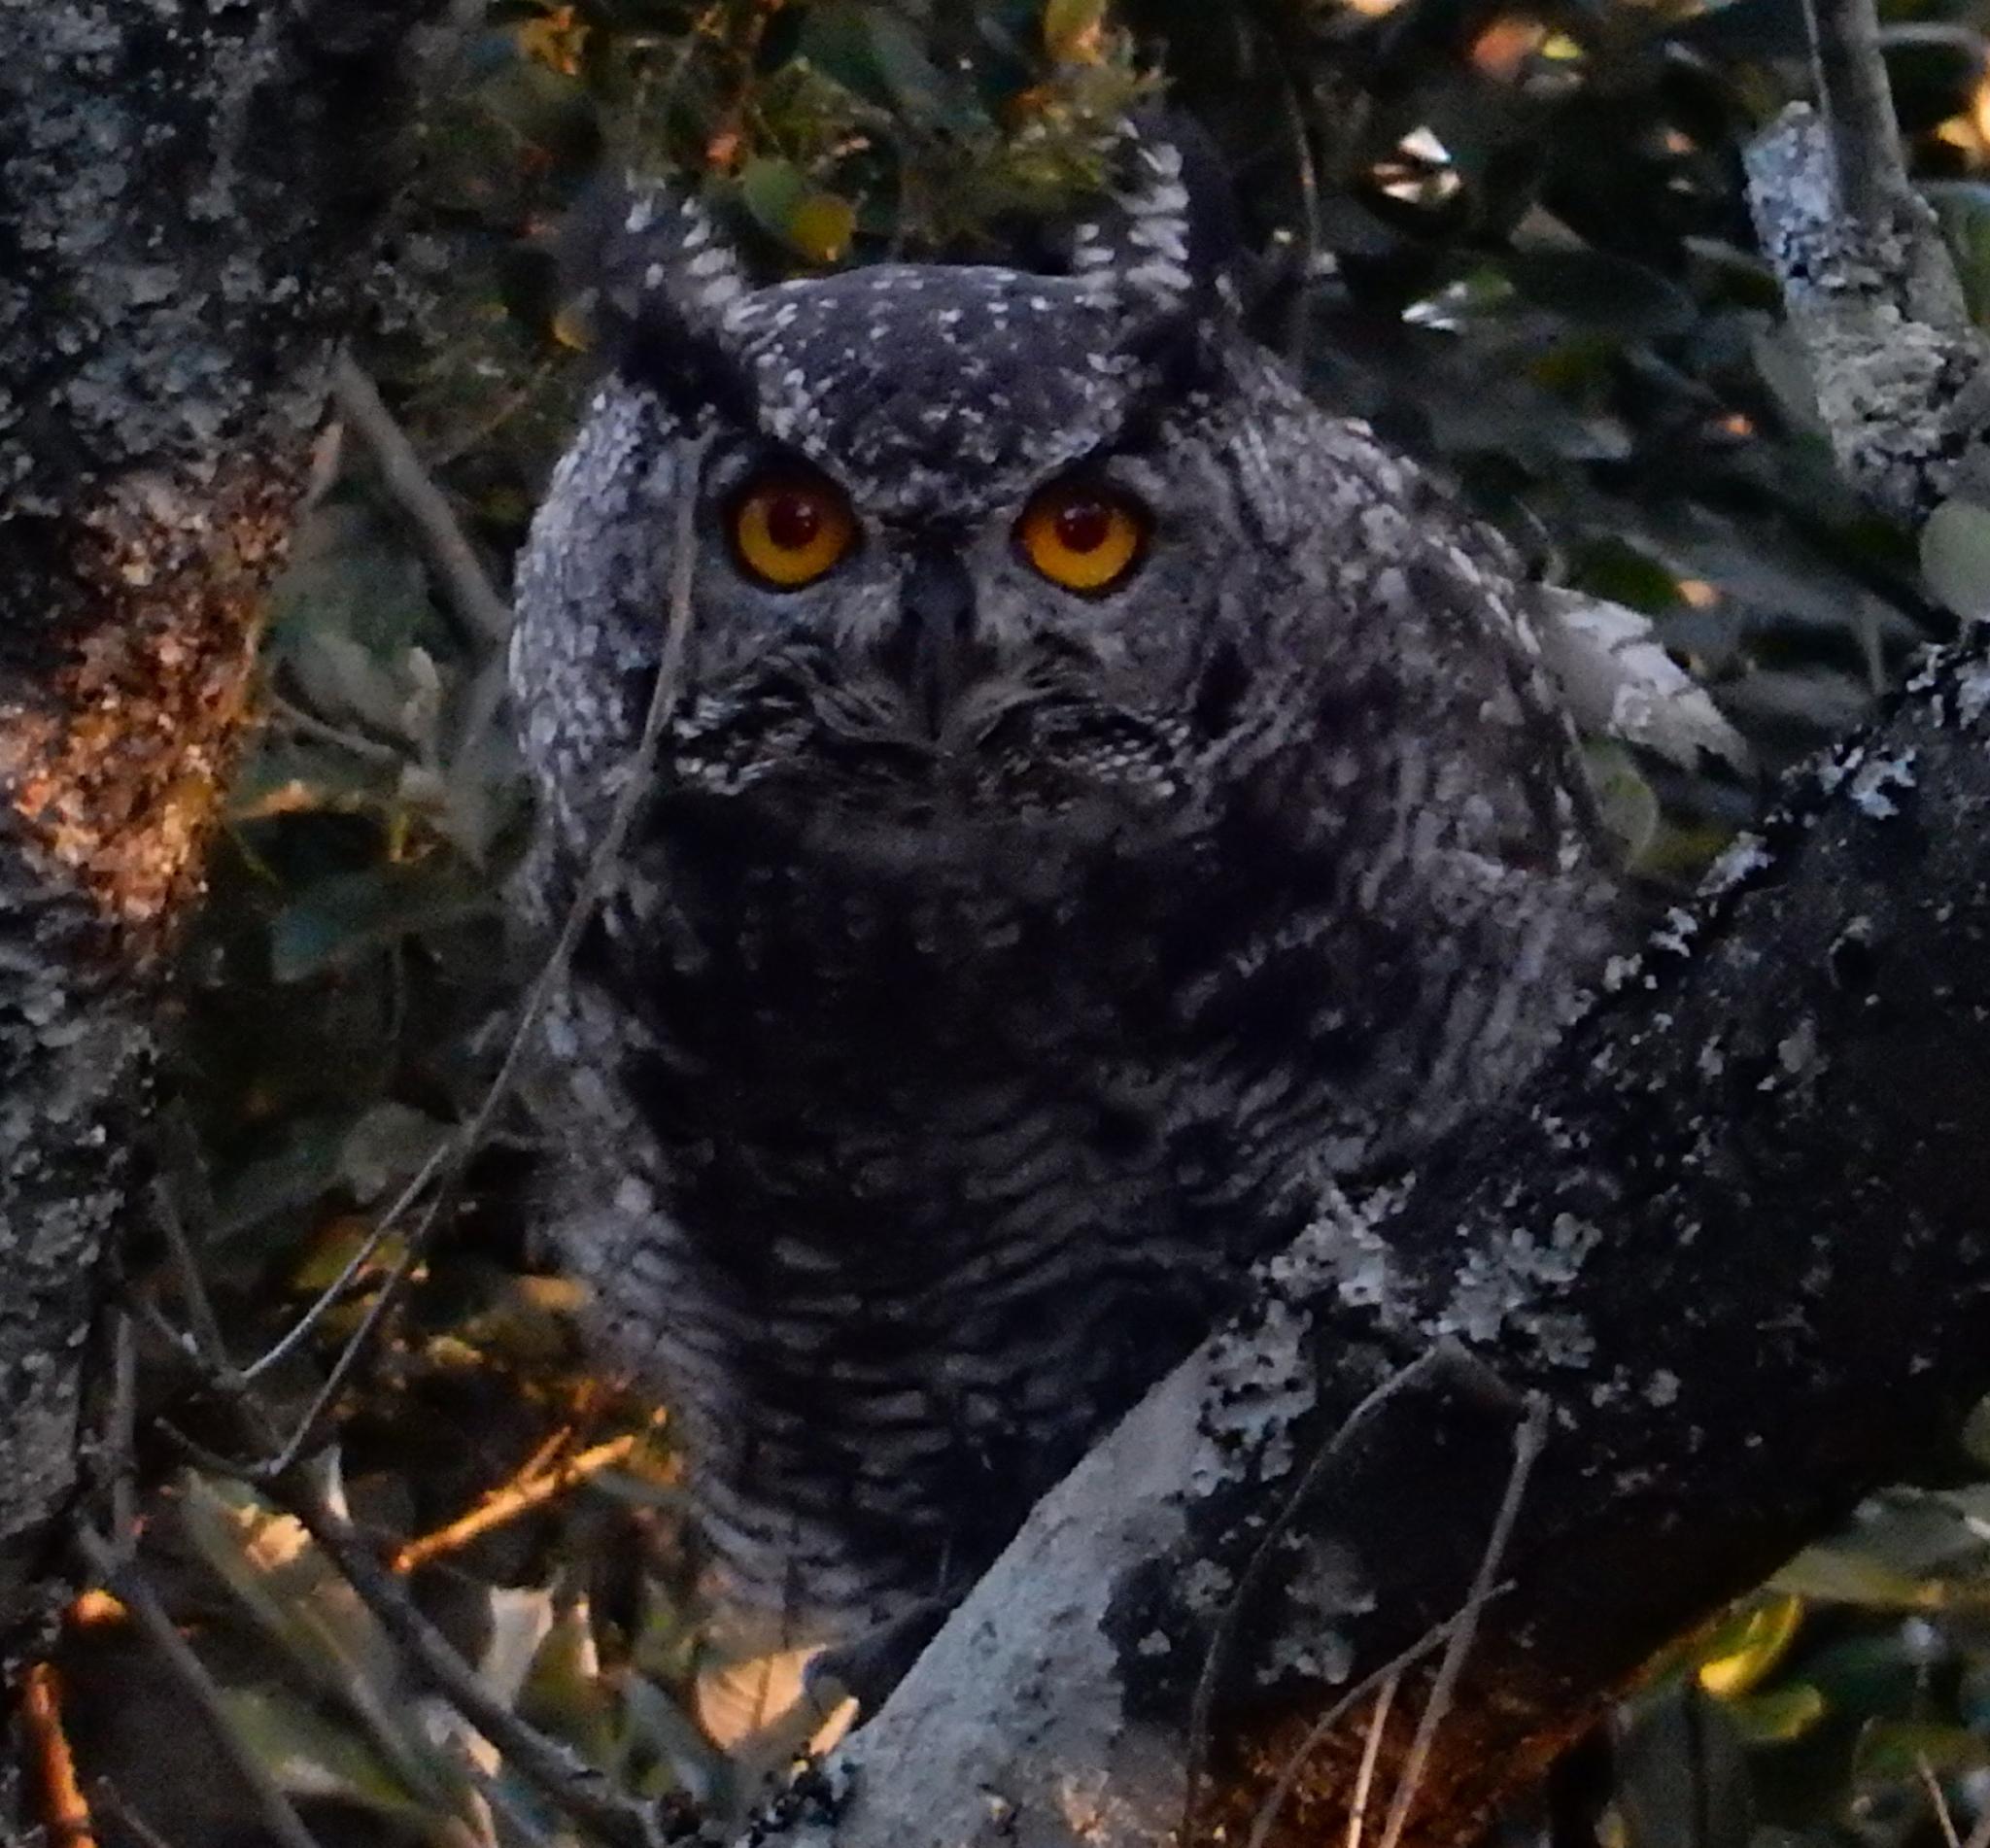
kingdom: Animalia
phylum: Chordata
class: Aves
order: Strigiformes
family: Strigidae
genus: Bubo
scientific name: Bubo africanus
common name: Spotted eagle-owl
